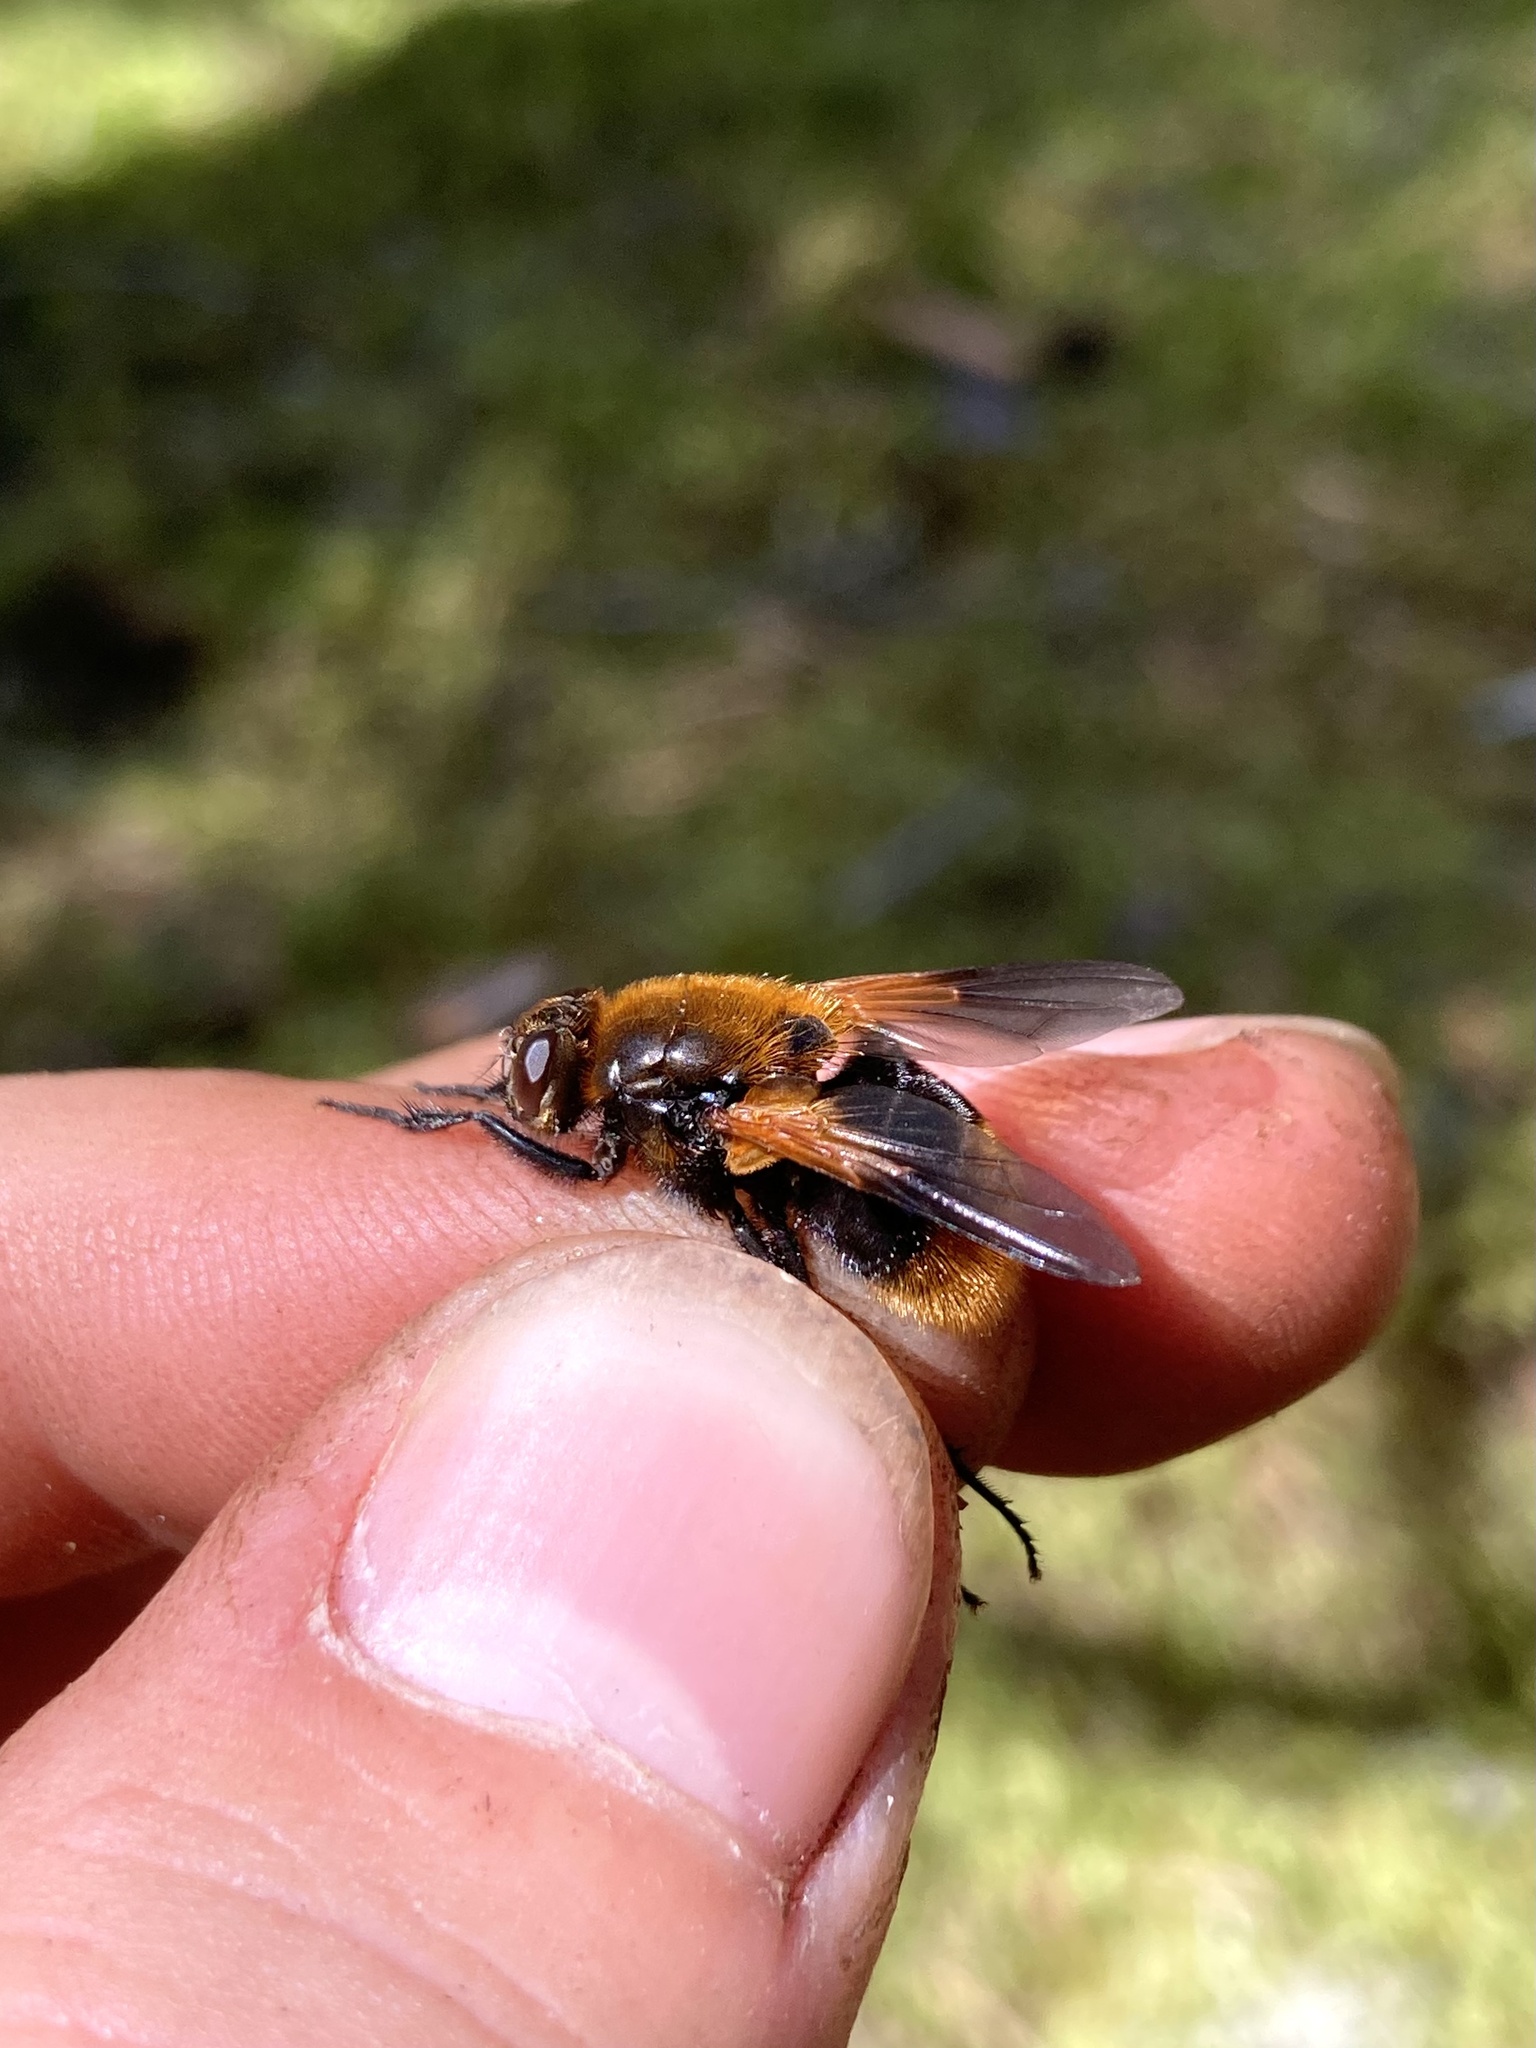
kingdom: Animalia
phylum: Arthropoda
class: Insecta
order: Diptera
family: Muscidae
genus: Mesembrina
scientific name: Mesembrina decipiens
